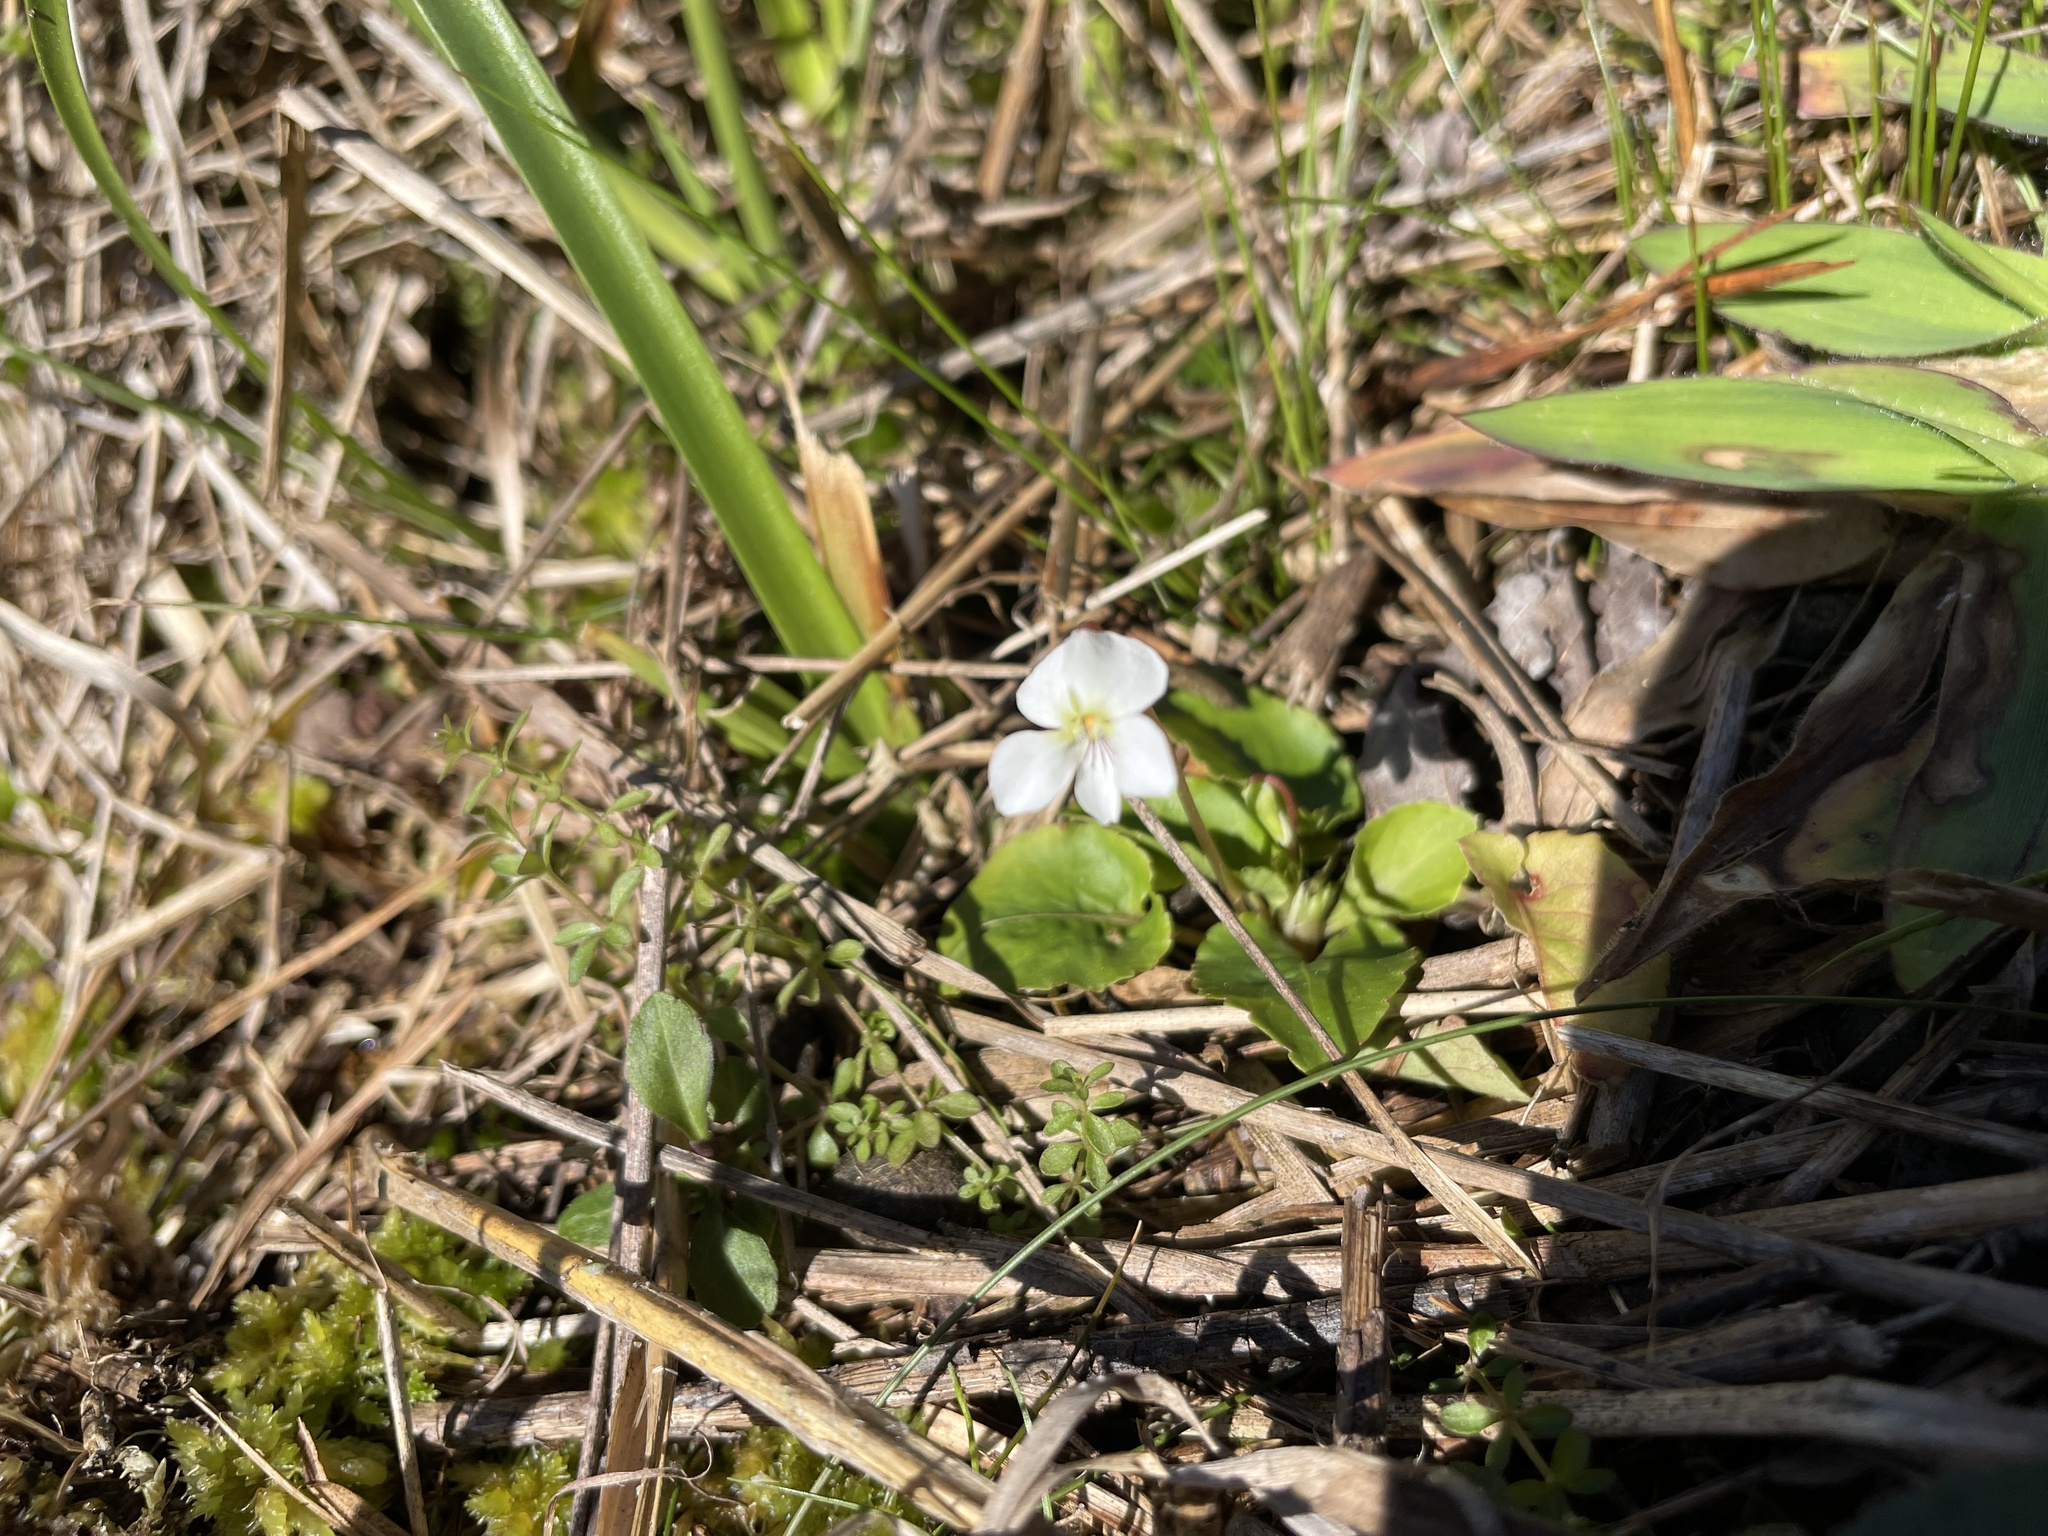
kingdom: Plantae
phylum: Tracheophyta
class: Magnoliopsida
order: Malpighiales
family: Violaceae
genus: Viola
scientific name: Viola primulifolia
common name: Primrose-leaf violet
